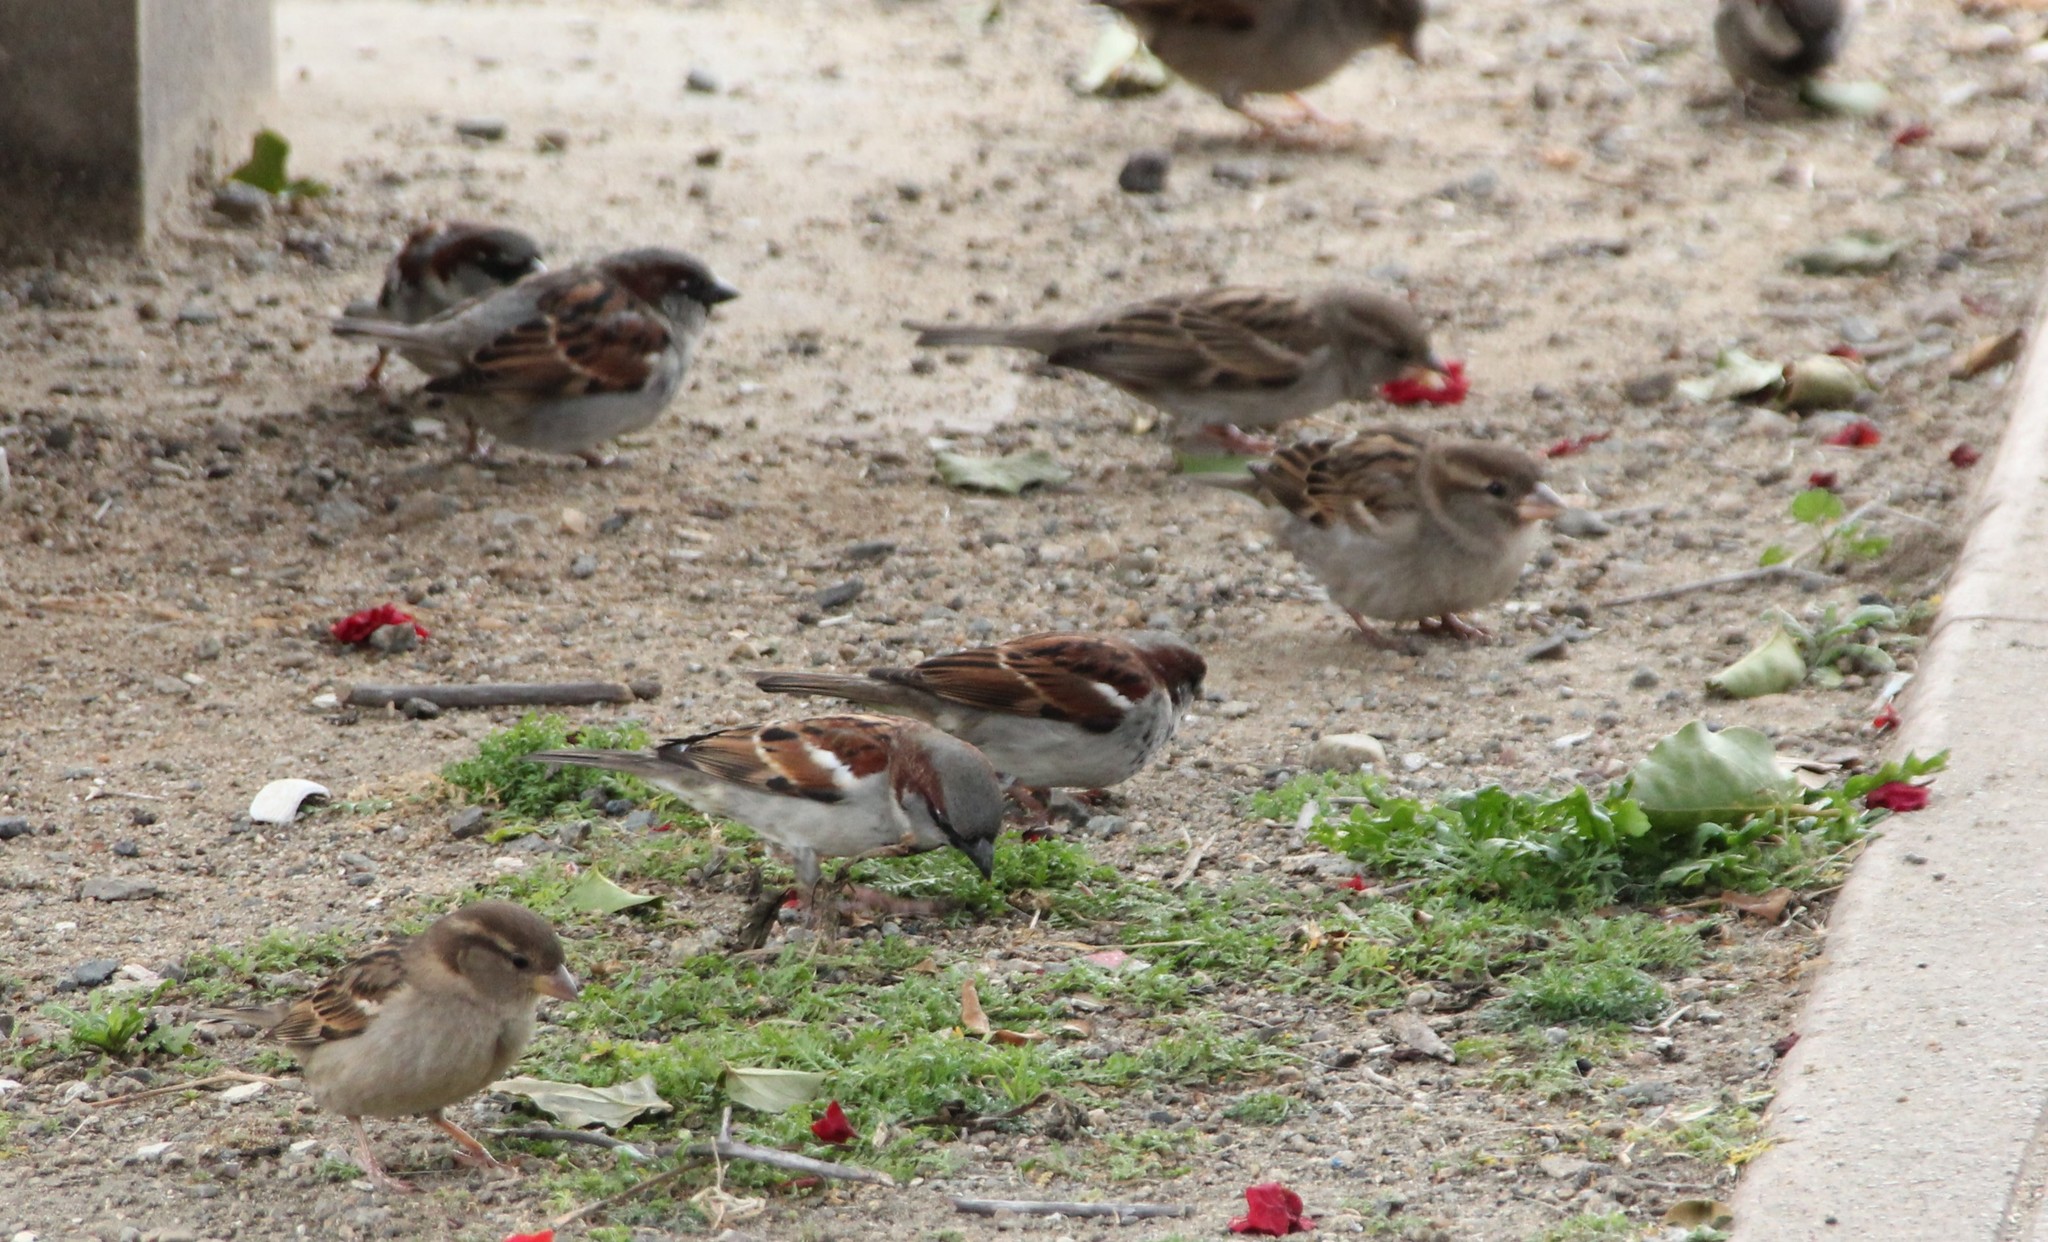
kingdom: Animalia
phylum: Chordata
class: Aves
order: Passeriformes
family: Passeridae
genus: Passer
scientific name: Passer domesticus
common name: House sparrow
